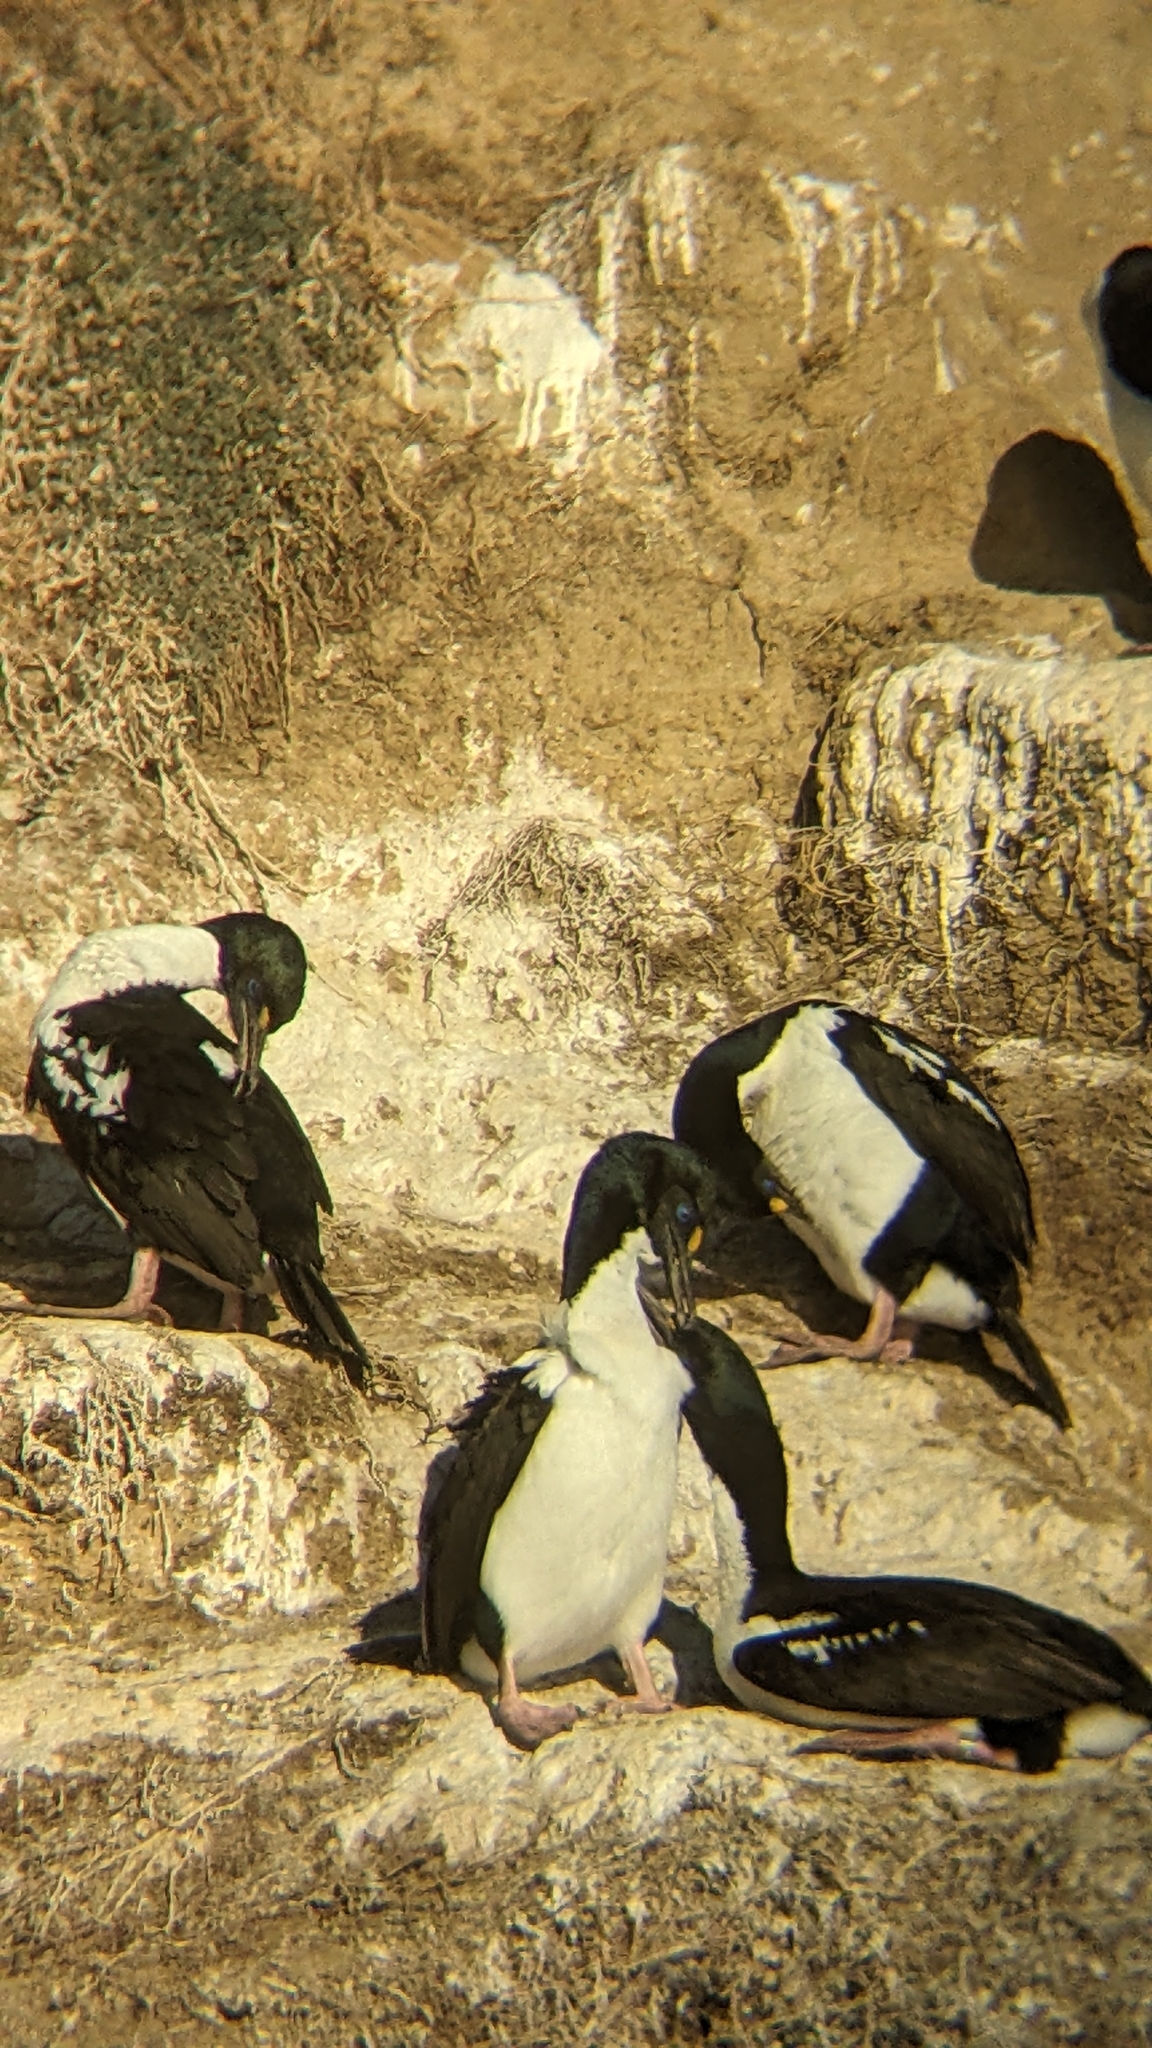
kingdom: Animalia
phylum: Chordata
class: Aves
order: Suliformes
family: Phalacrocoracidae
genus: Leucocarbo
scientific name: Leucocarbo carunculatus
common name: Rough-faced shag
